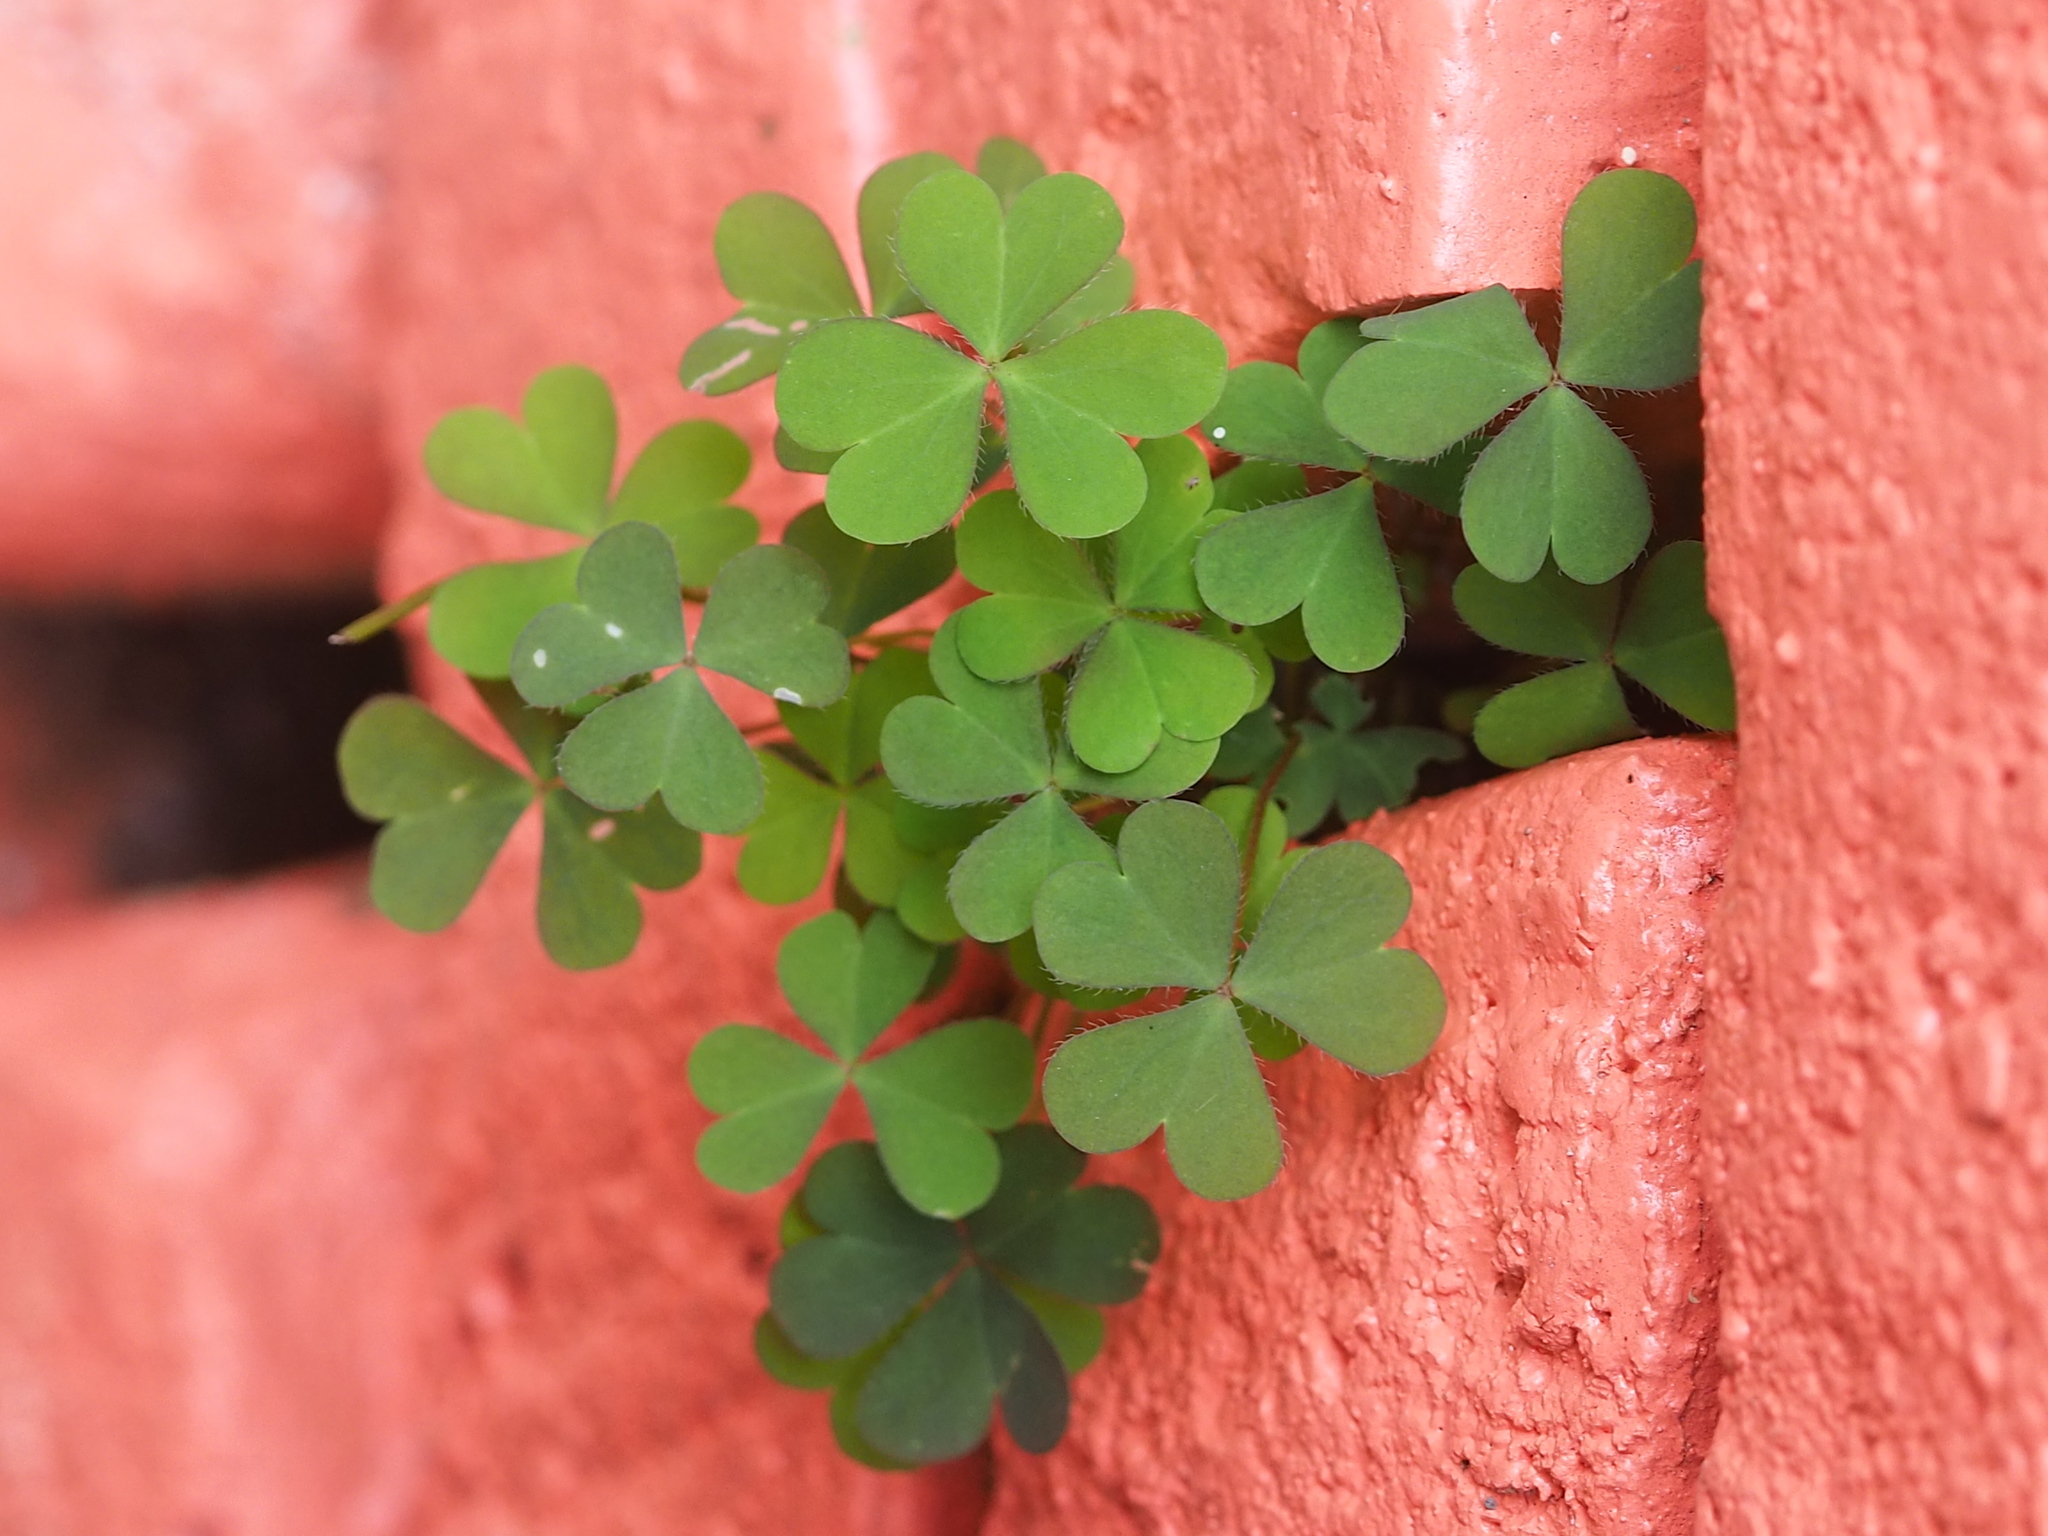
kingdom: Plantae
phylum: Tracheophyta
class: Magnoliopsida
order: Oxalidales
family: Oxalidaceae
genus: Oxalis
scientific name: Oxalis corniculata
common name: Procumbent yellow-sorrel
